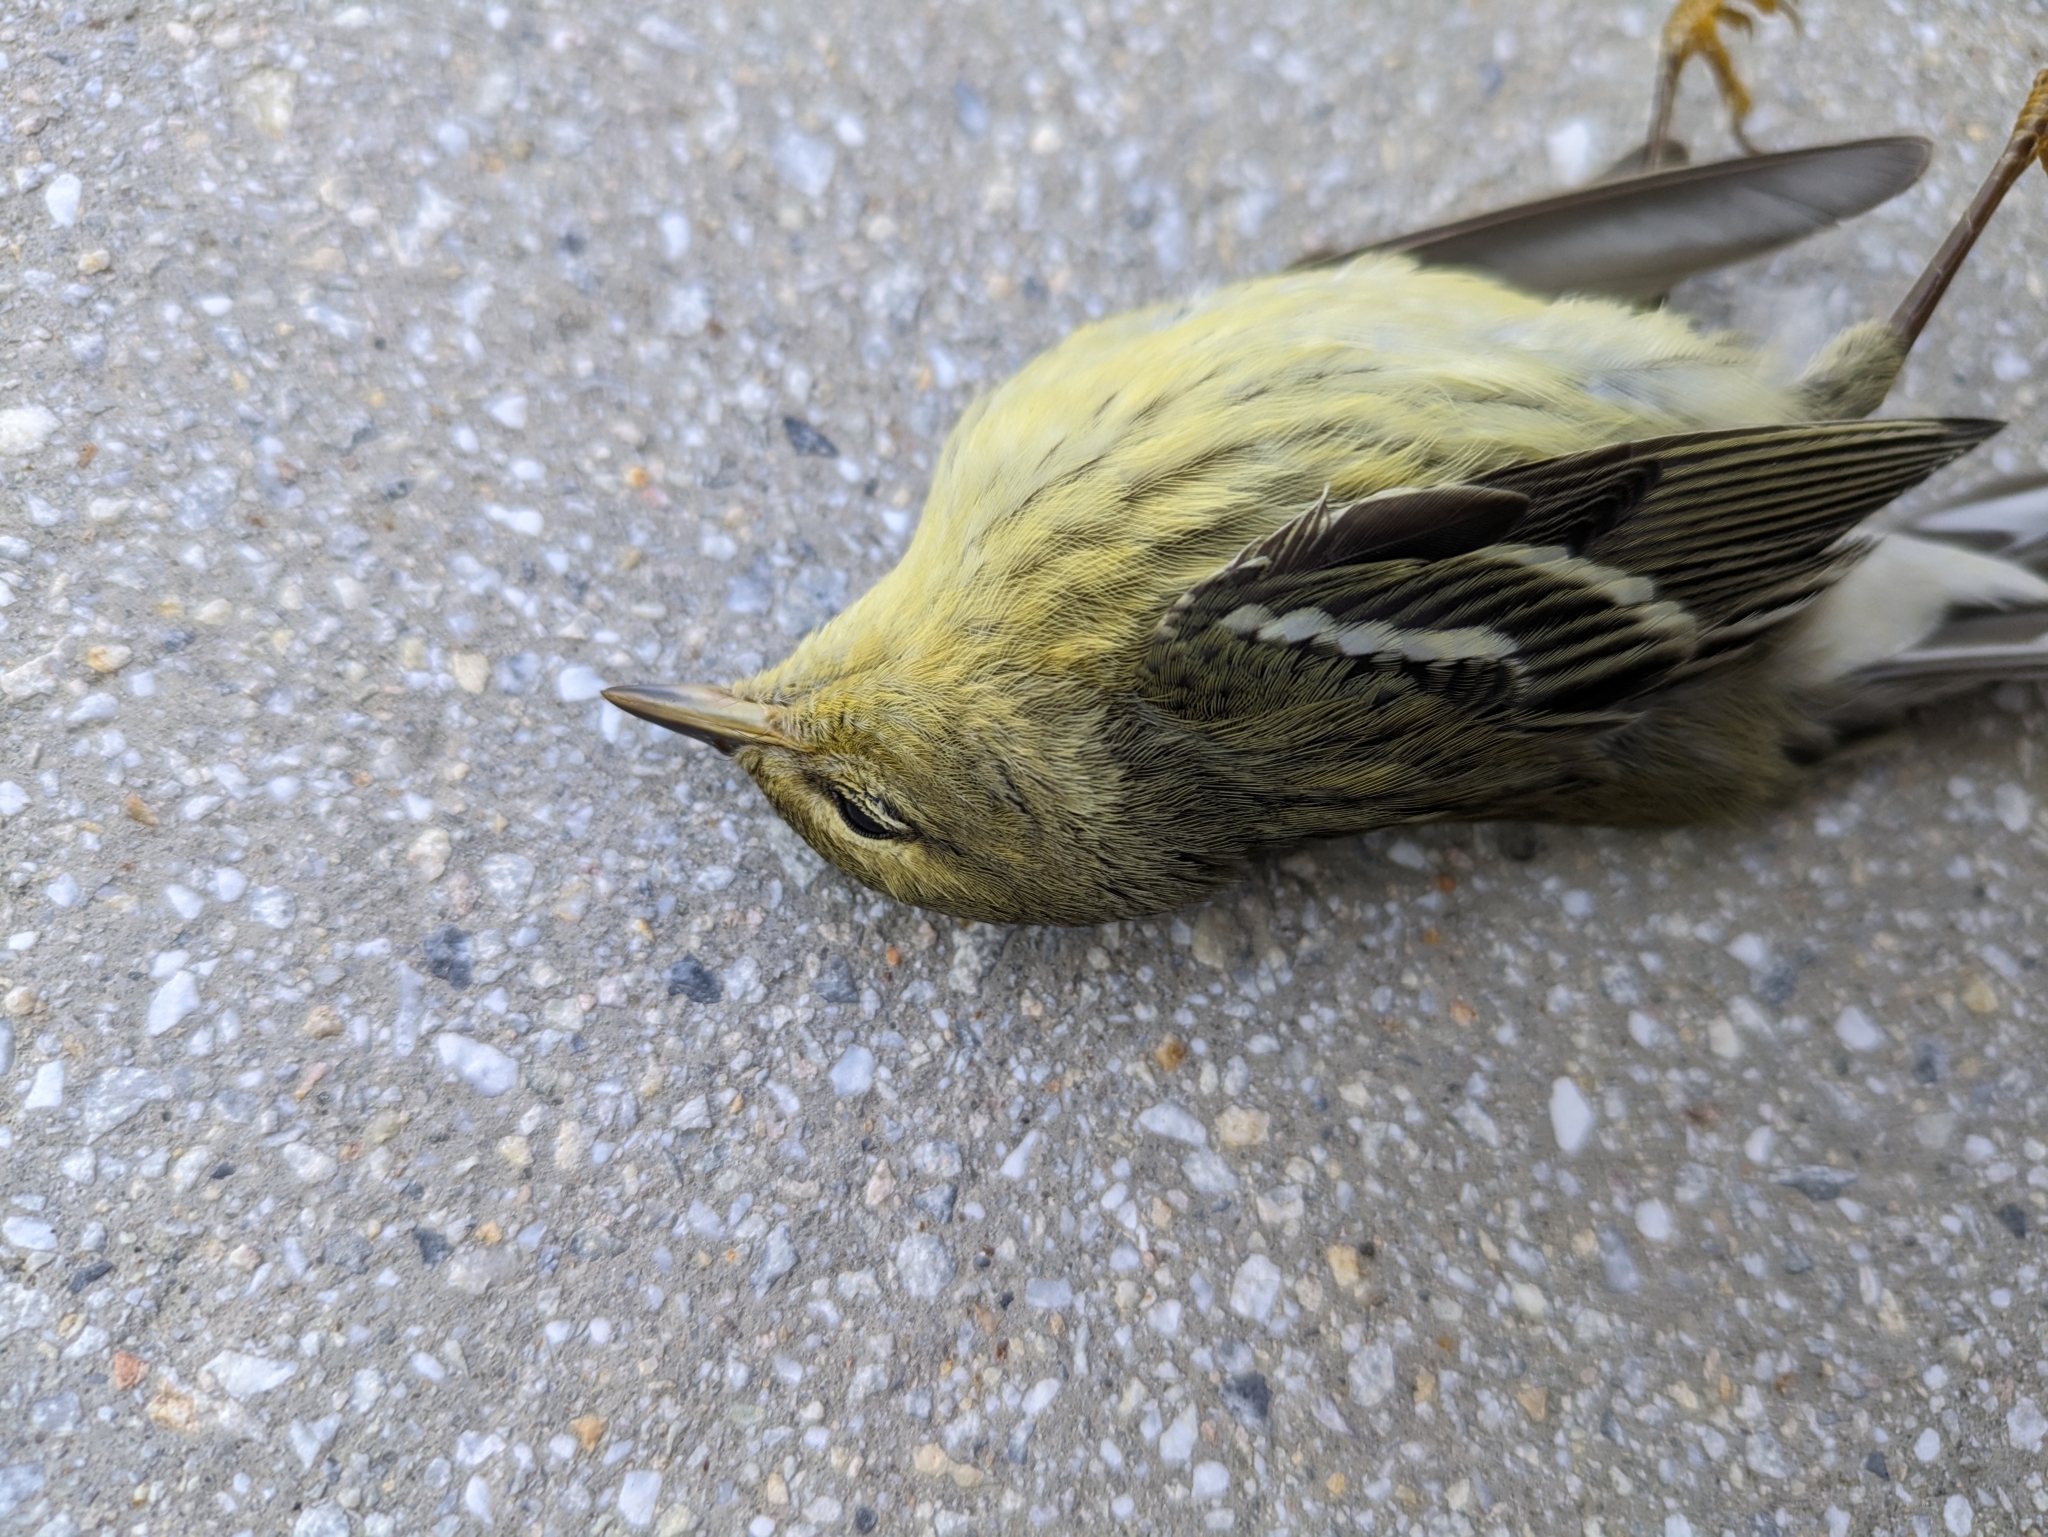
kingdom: Animalia
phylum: Chordata
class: Aves
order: Passeriformes
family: Parulidae
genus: Setophaga
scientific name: Setophaga striata
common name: Blackpoll warbler
